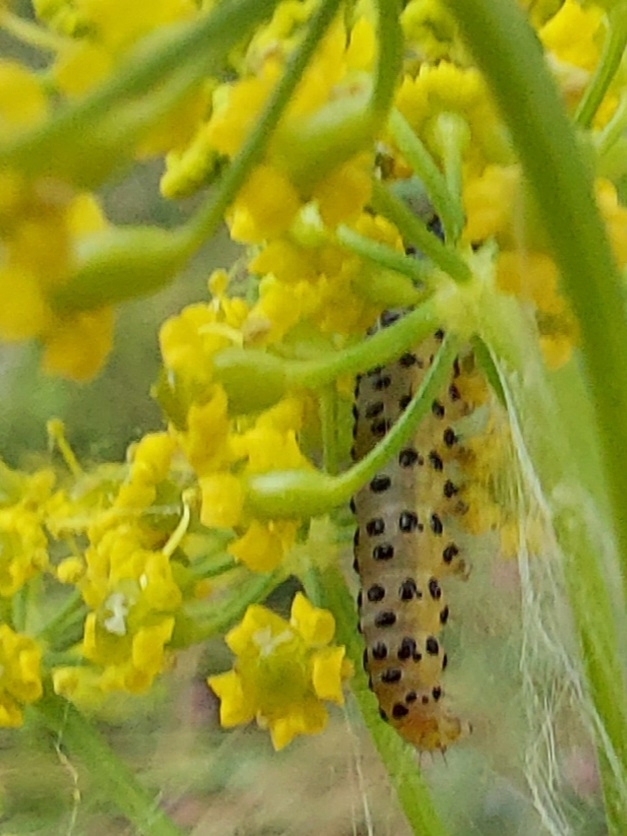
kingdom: Animalia
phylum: Arthropoda
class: Insecta
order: Lepidoptera
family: Crambidae
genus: Sitochroa
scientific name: Sitochroa palealis
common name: Greenish-yellow sitochroa moth
